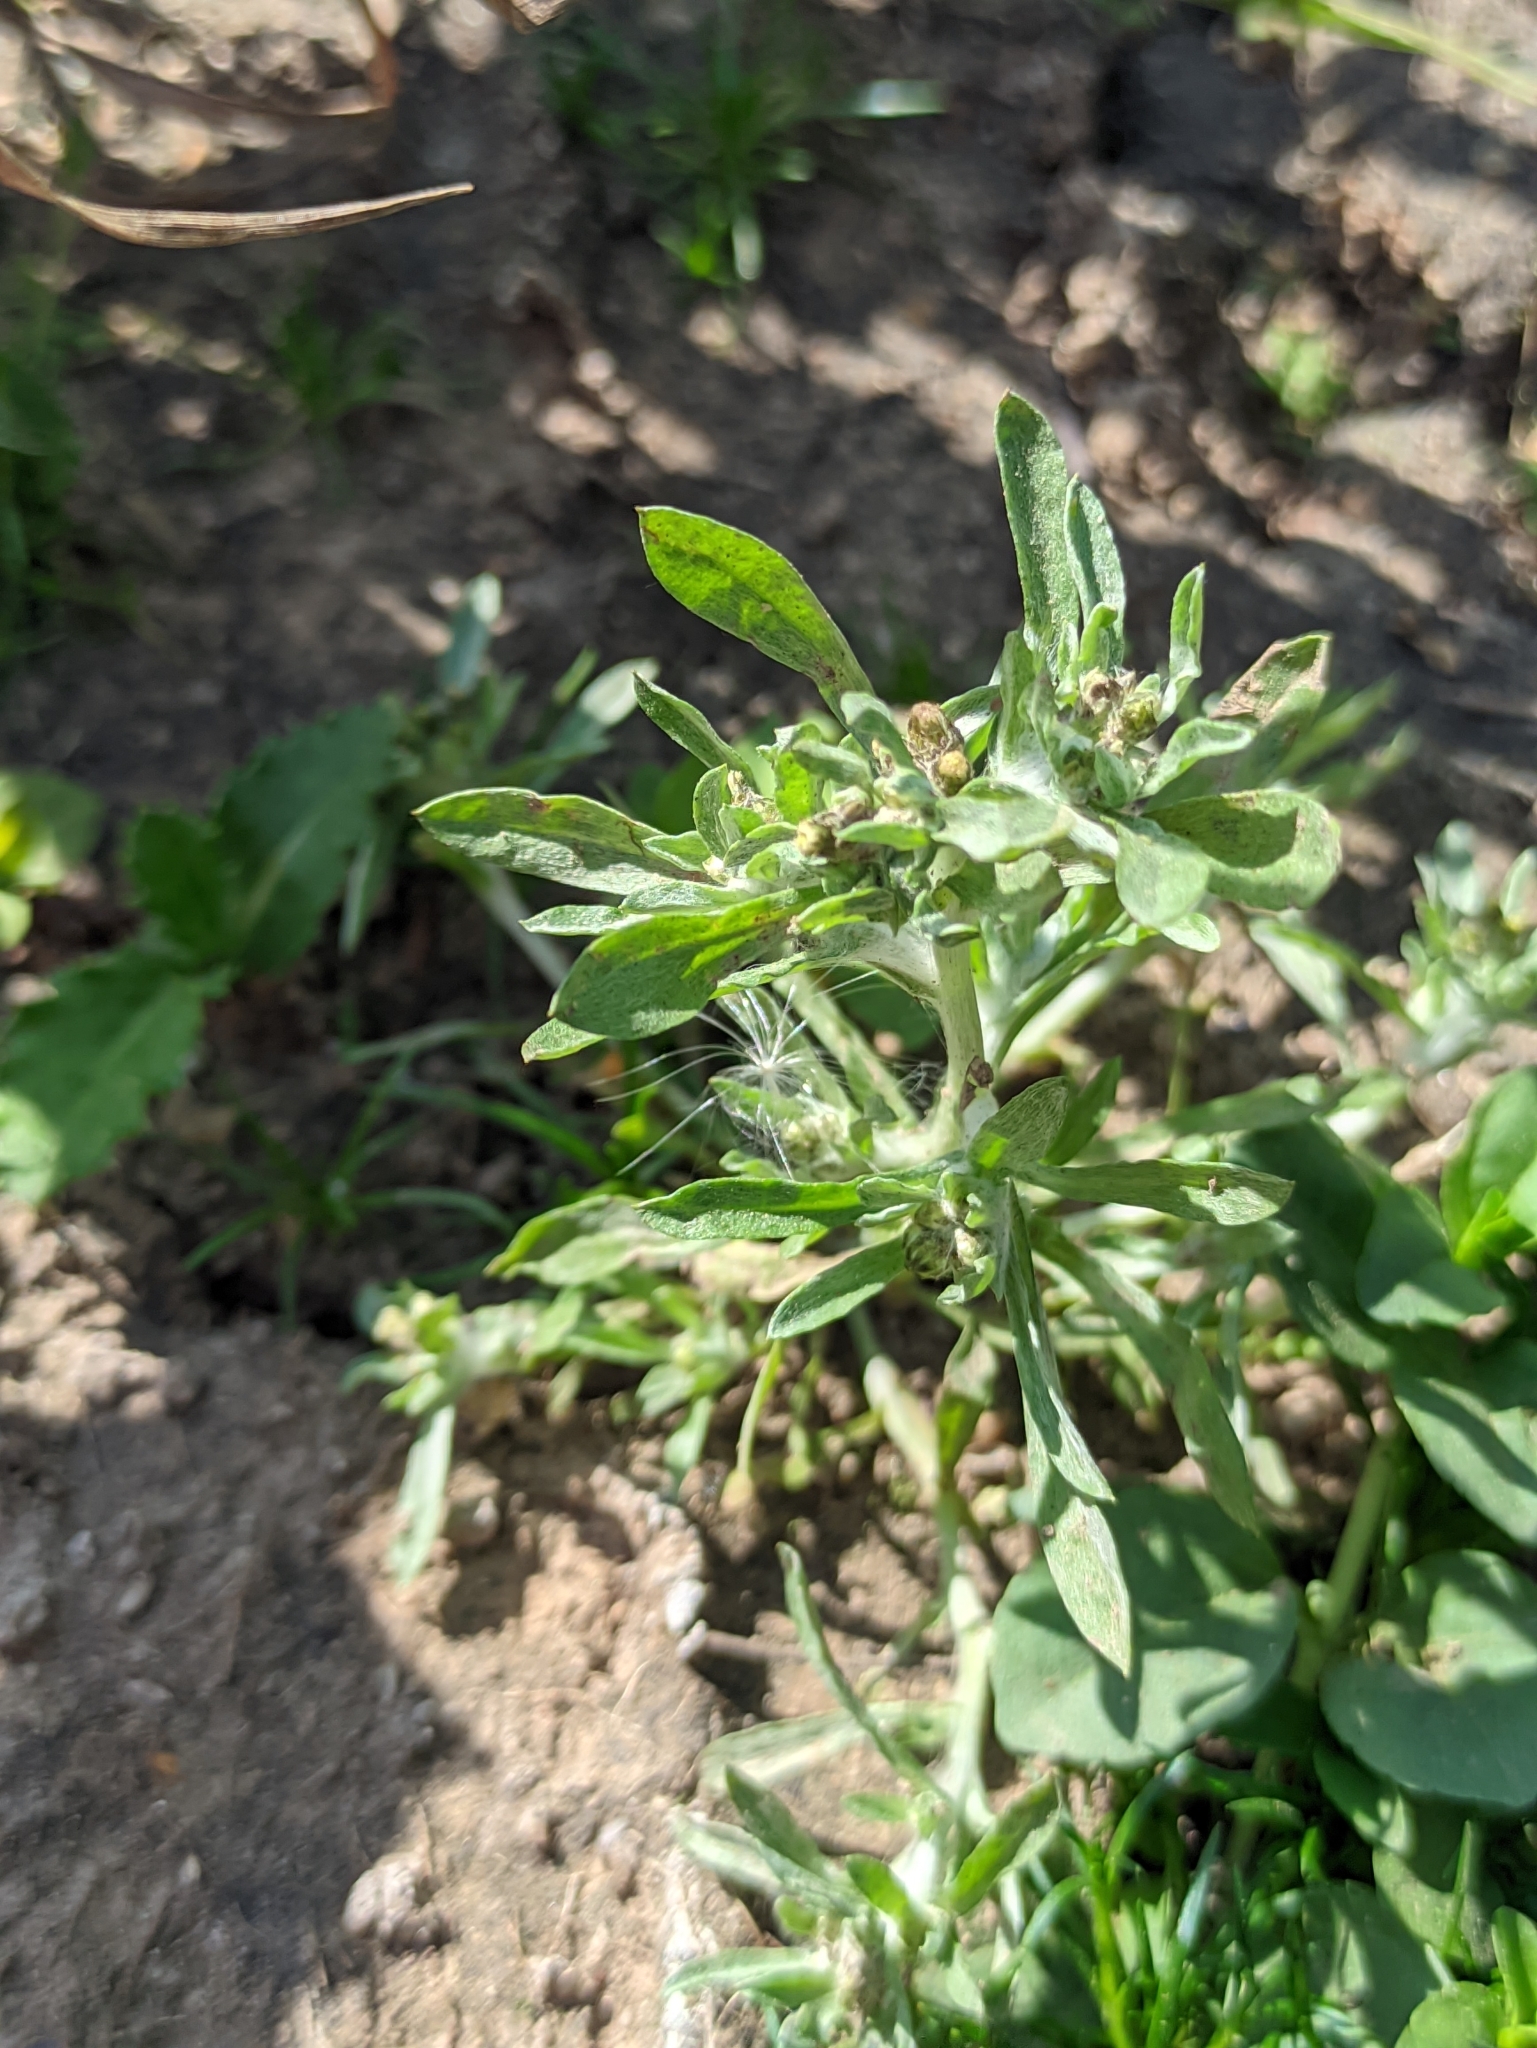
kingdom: Plantae
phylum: Tracheophyta
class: Magnoliopsida
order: Asterales
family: Asteraceae
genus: Gnaphalium
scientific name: Gnaphalium uliginosum
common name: Marsh cudweed
